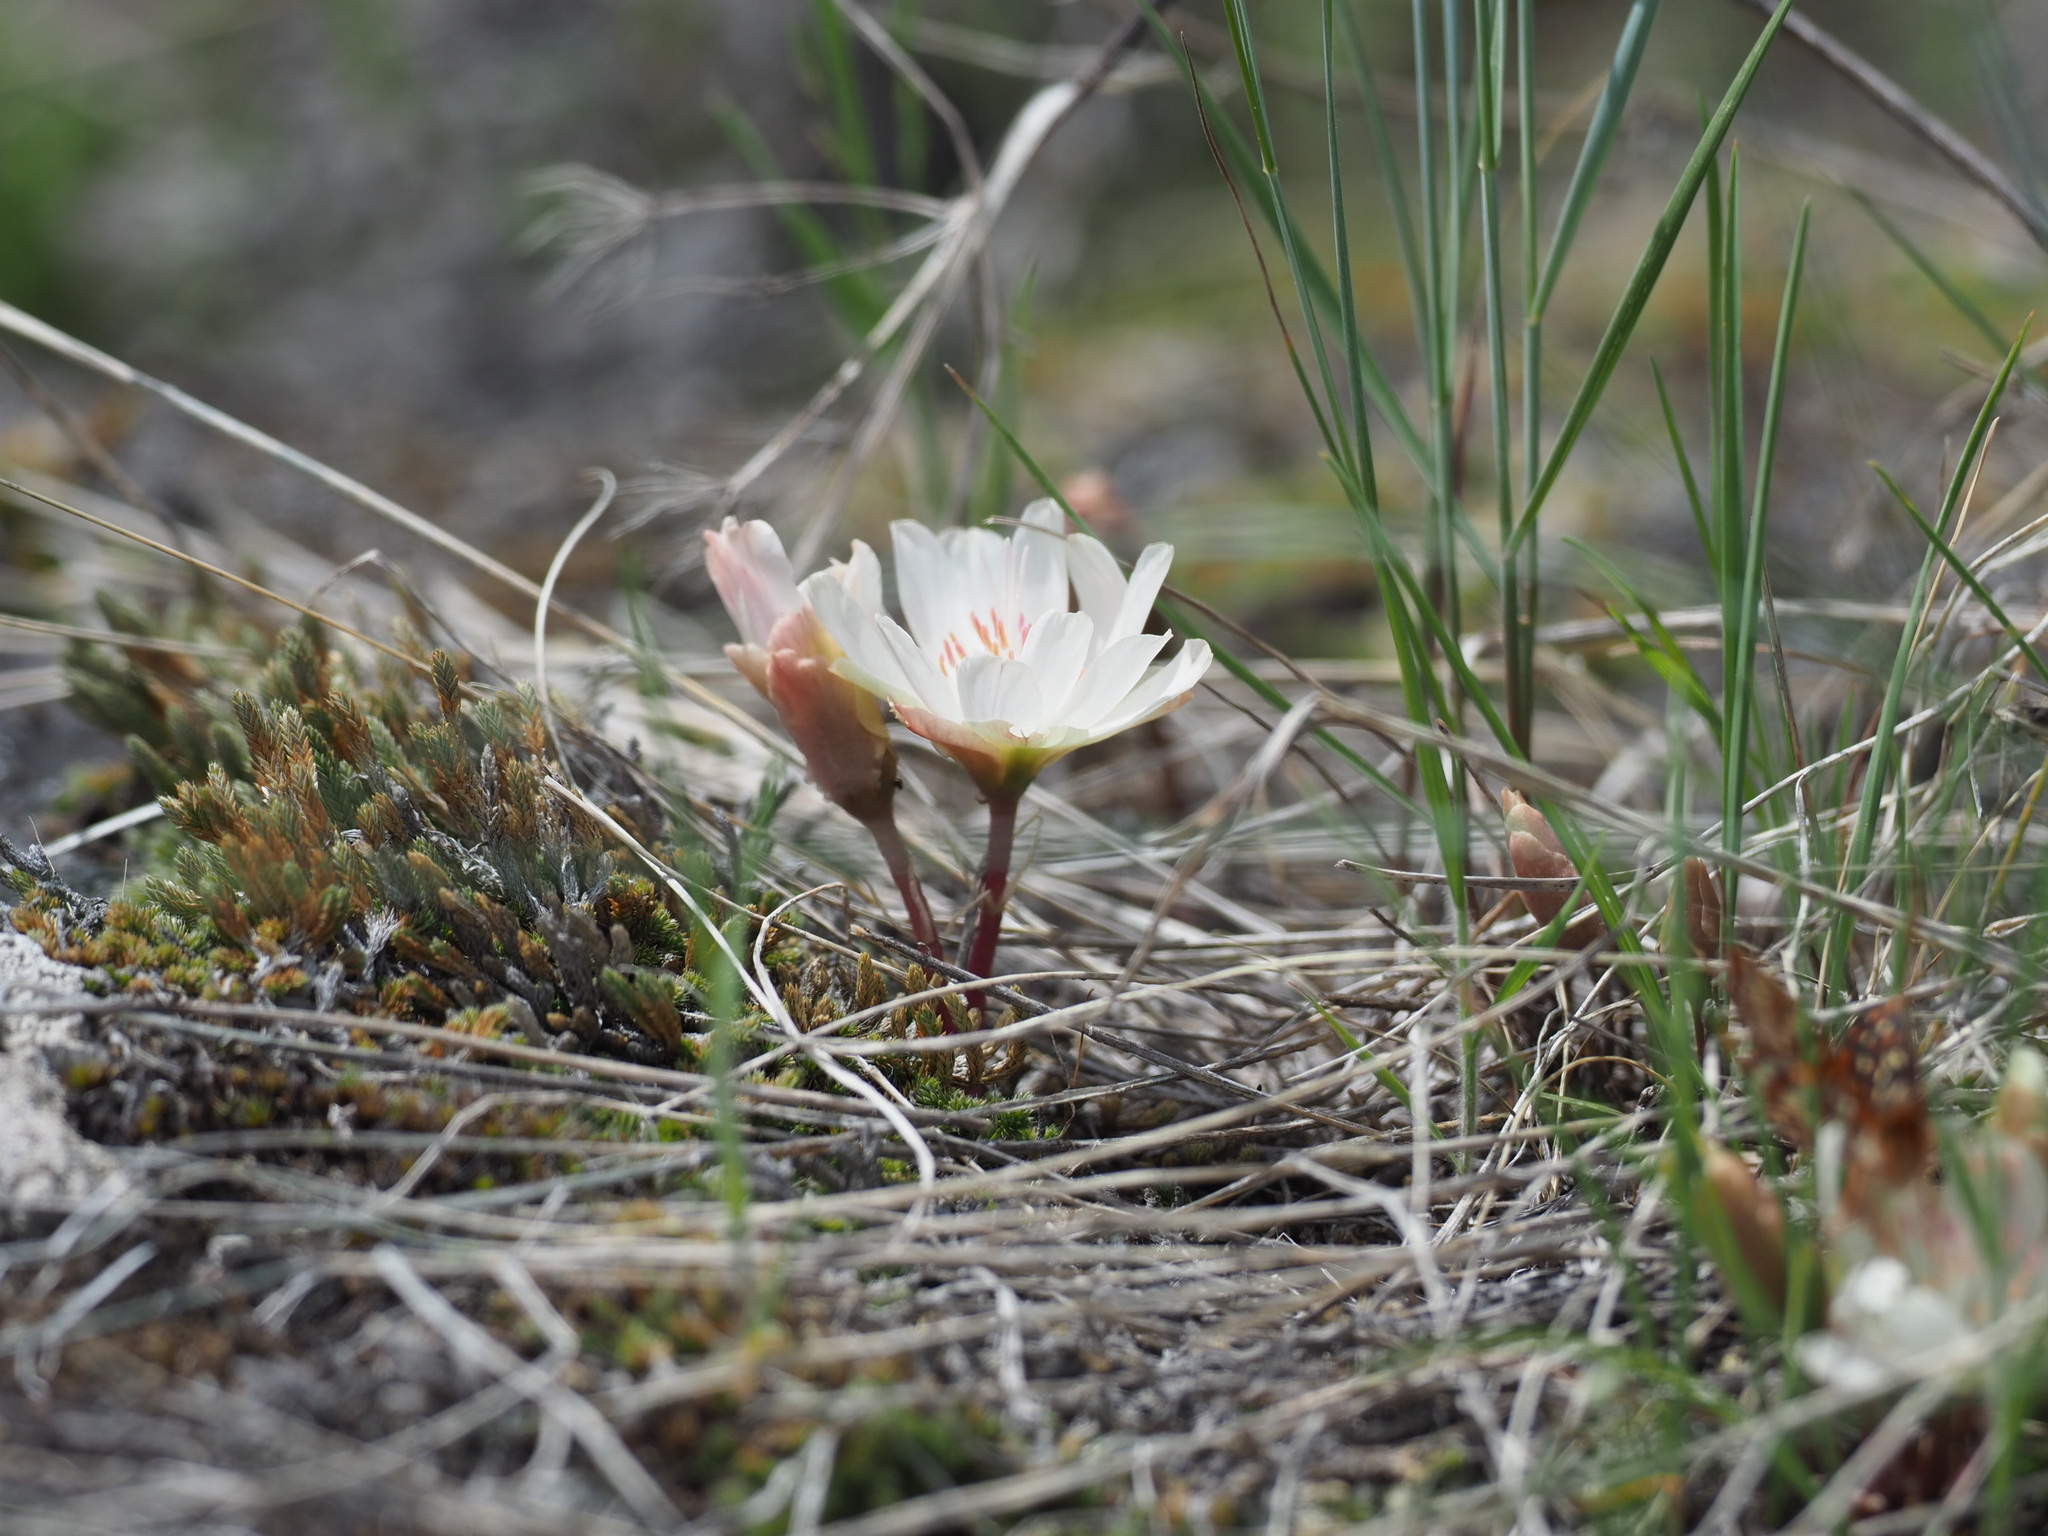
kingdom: Plantae
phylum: Tracheophyta
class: Magnoliopsida
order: Caryophyllales
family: Montiaceae
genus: Lewisia
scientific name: Lewisia rediviva
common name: Bitter-root
